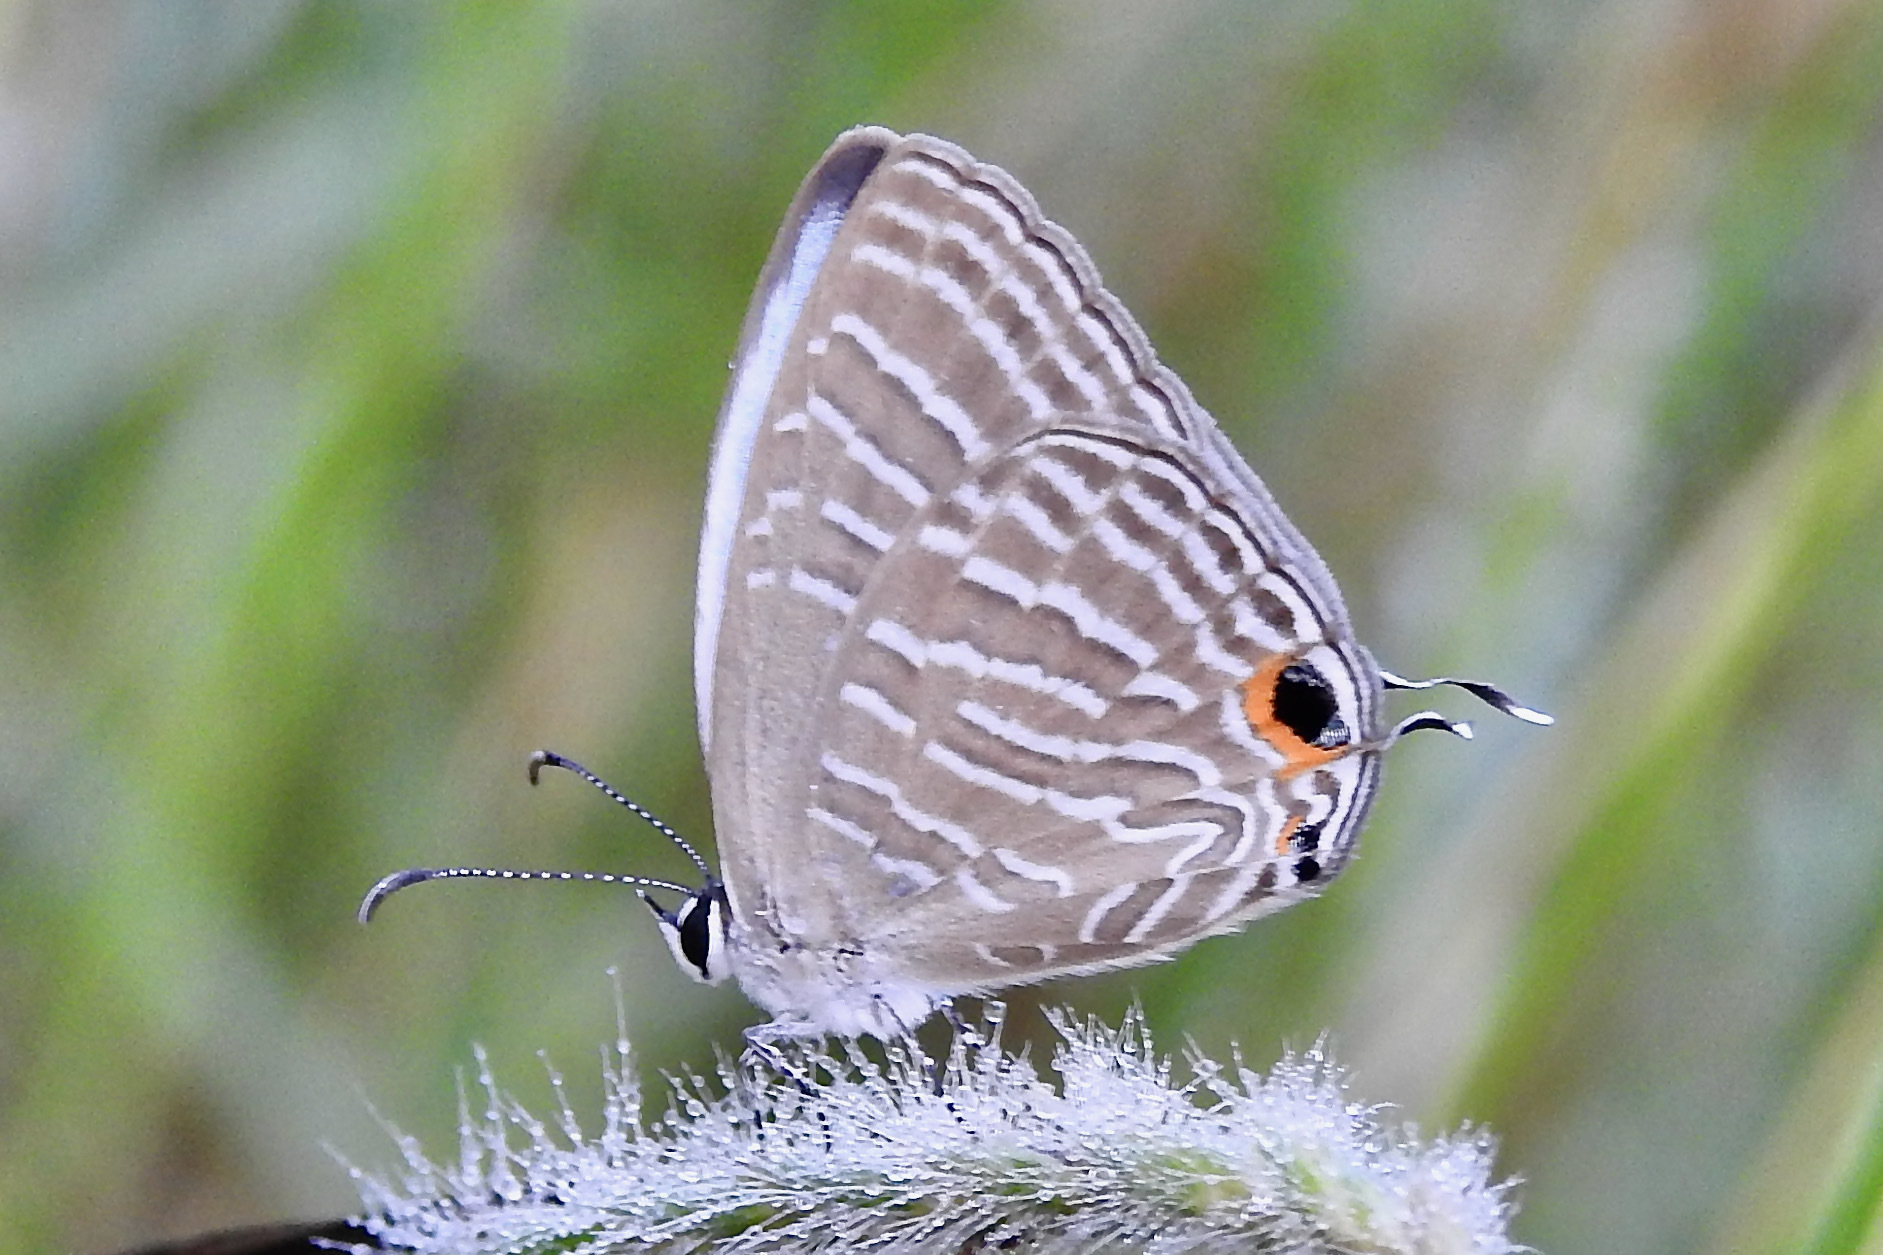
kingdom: Animalia
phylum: Arthropoda
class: Insecta
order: Lepidoptera
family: Lycaenidae
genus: Jamides
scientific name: Jamides celeno
